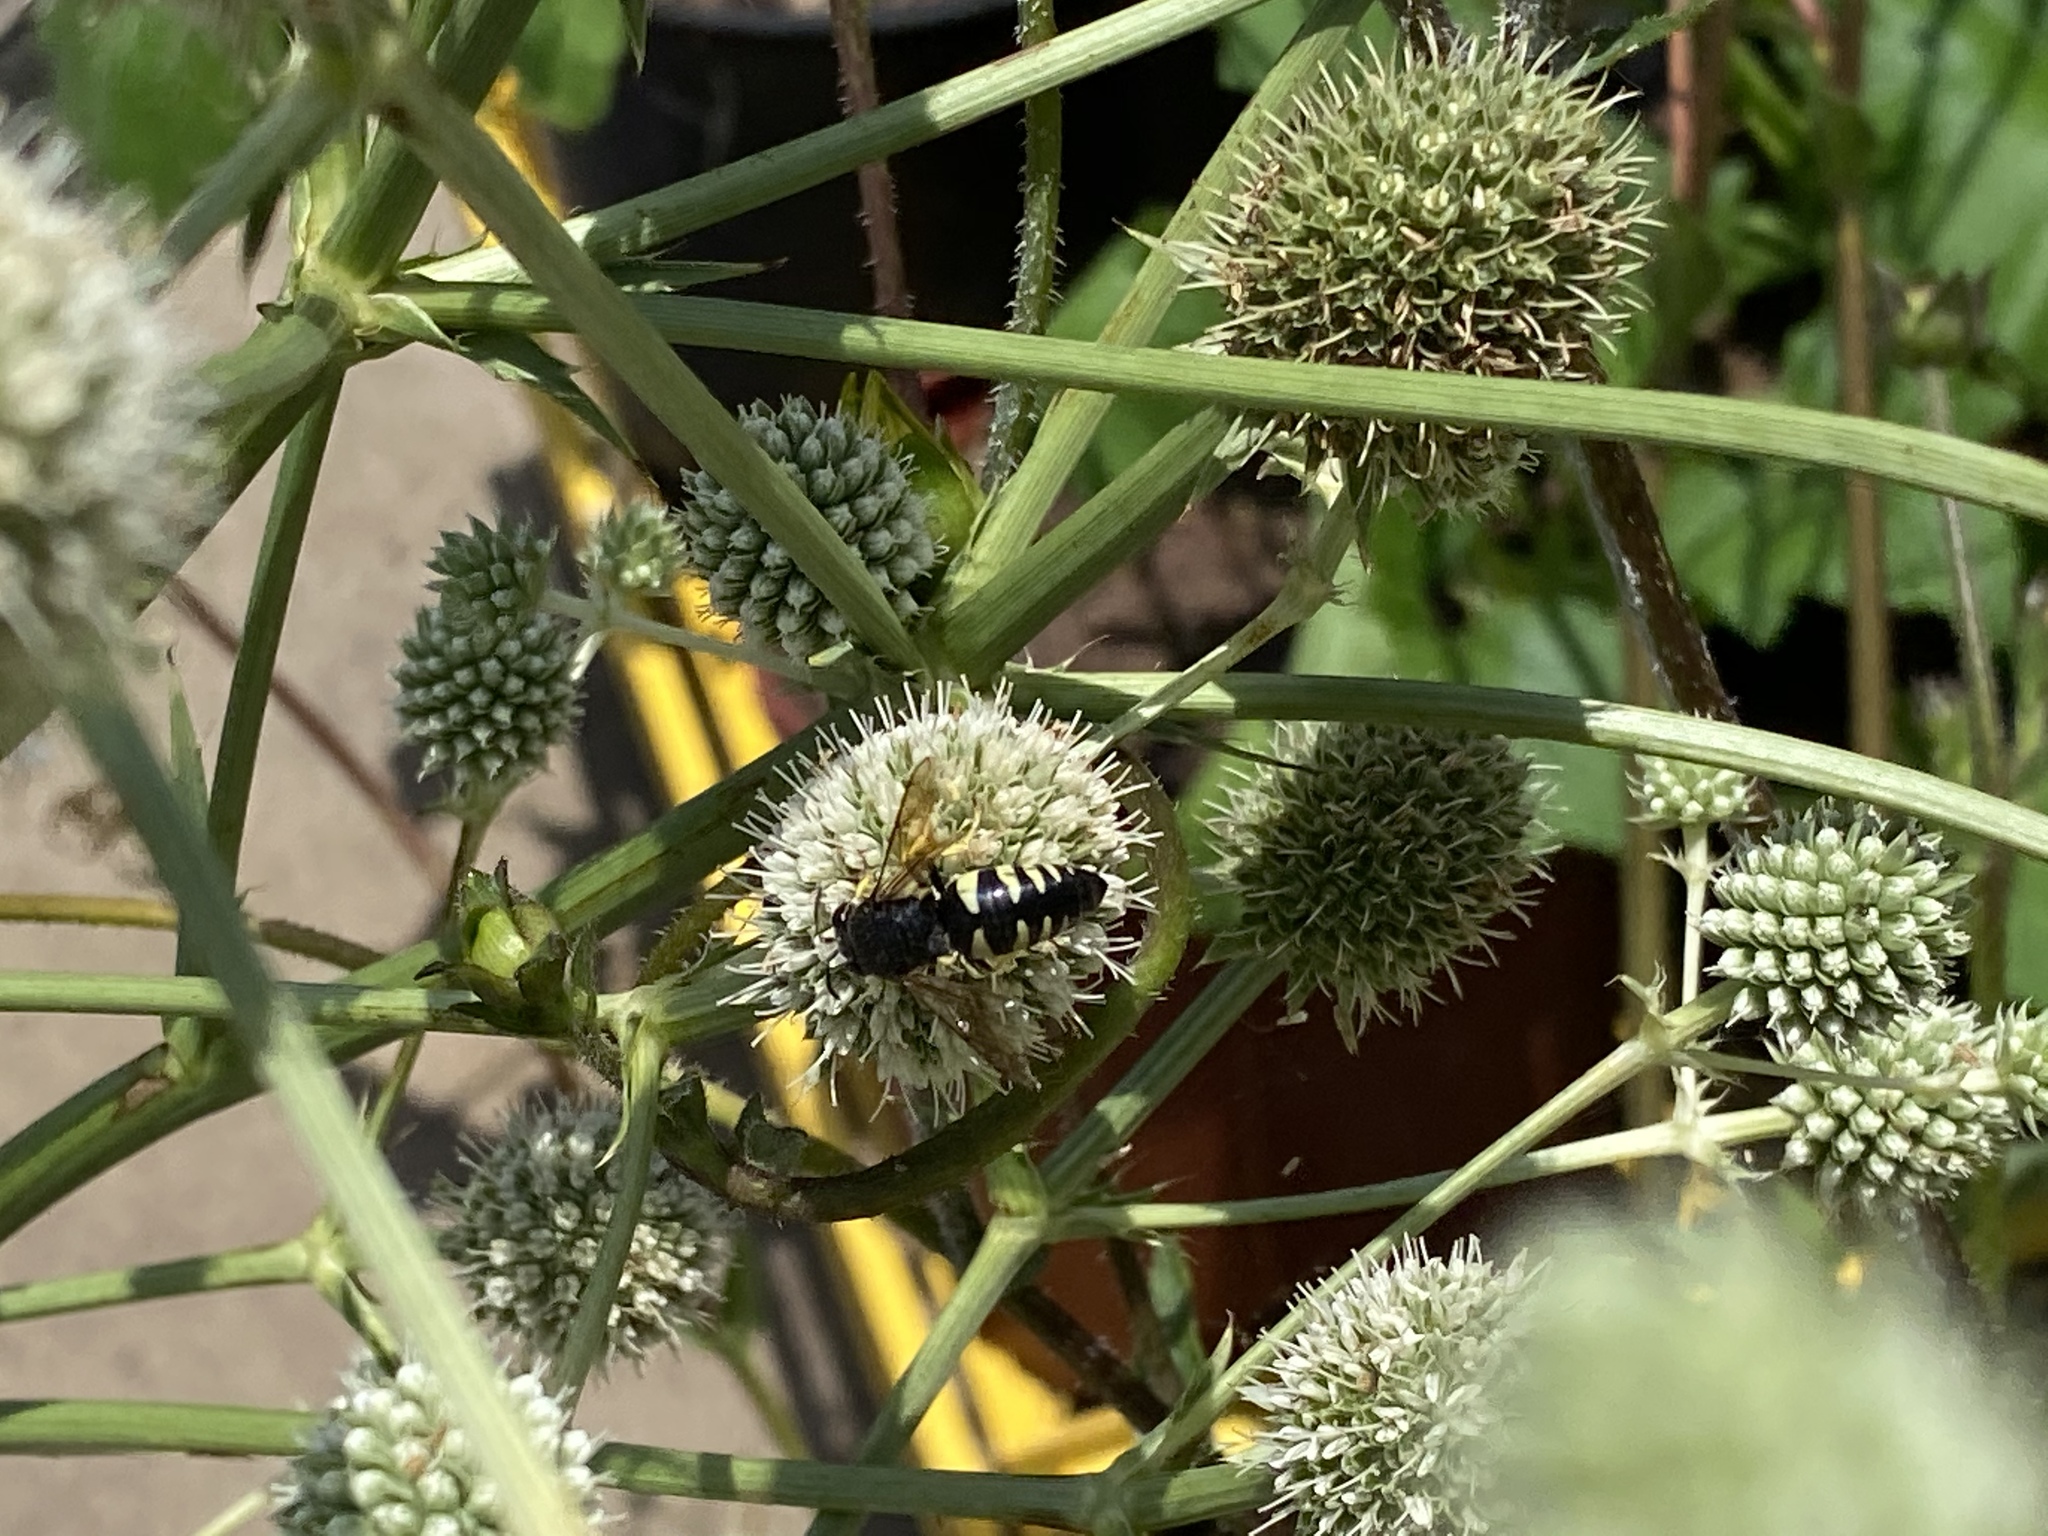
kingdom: Animalia
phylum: Arthropoda
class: Insecta
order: Hymenoptera
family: Crabronidae
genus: Bicyrtes
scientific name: Bicyrtes quadrifasciatus
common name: Four-banded stink bug hunter wasp
